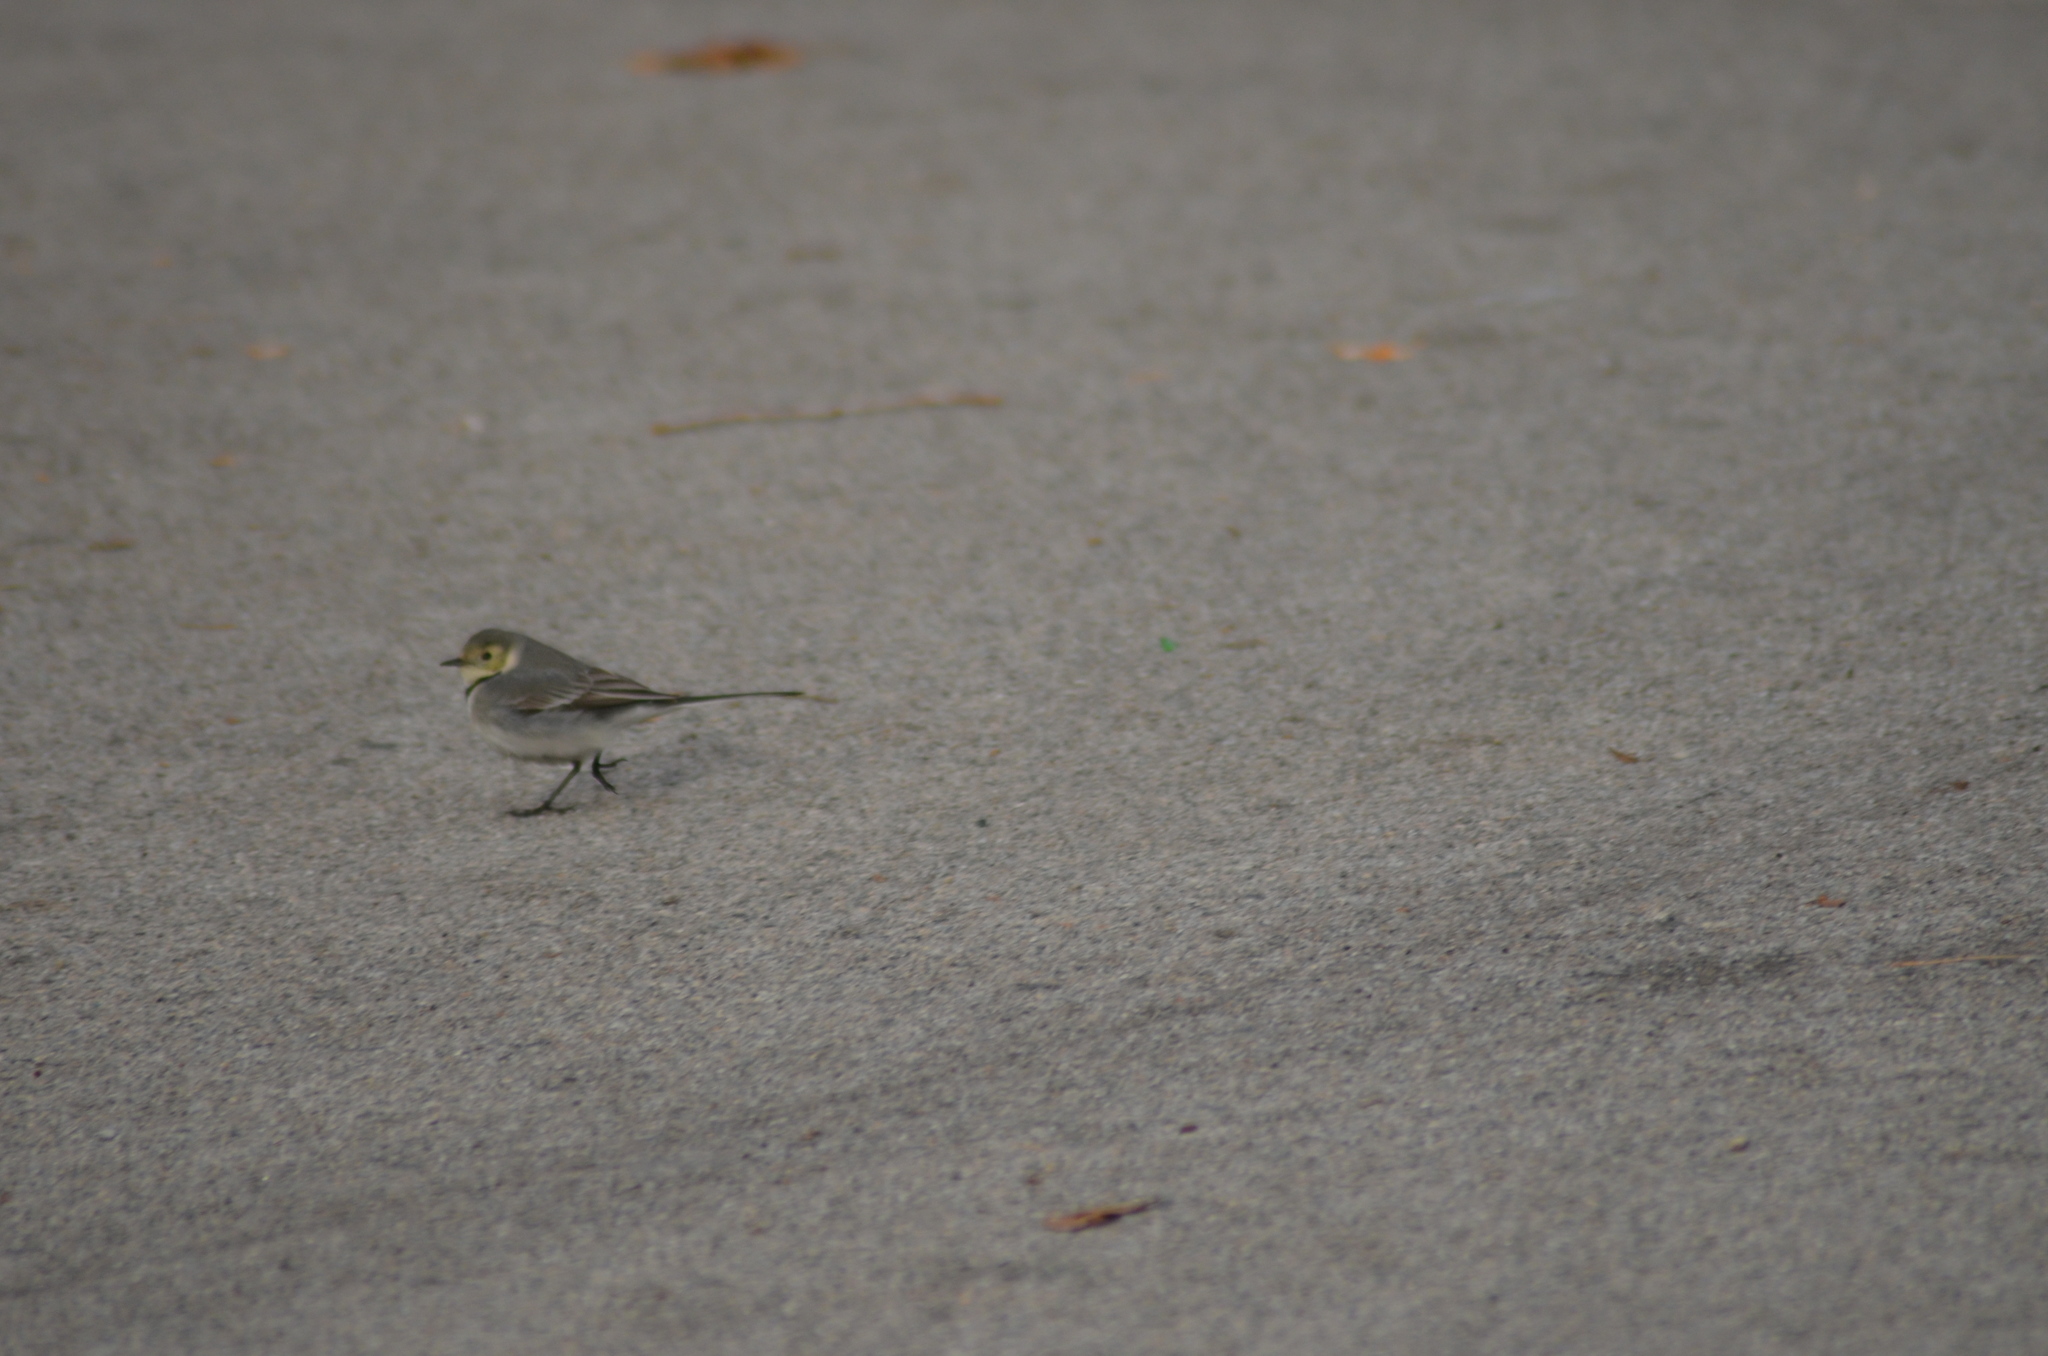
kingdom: Animalia
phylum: Chordata
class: Aves
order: Passeriformes
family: Motacillidae
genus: Motacilla
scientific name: Motacilla alba
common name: White wagtail
